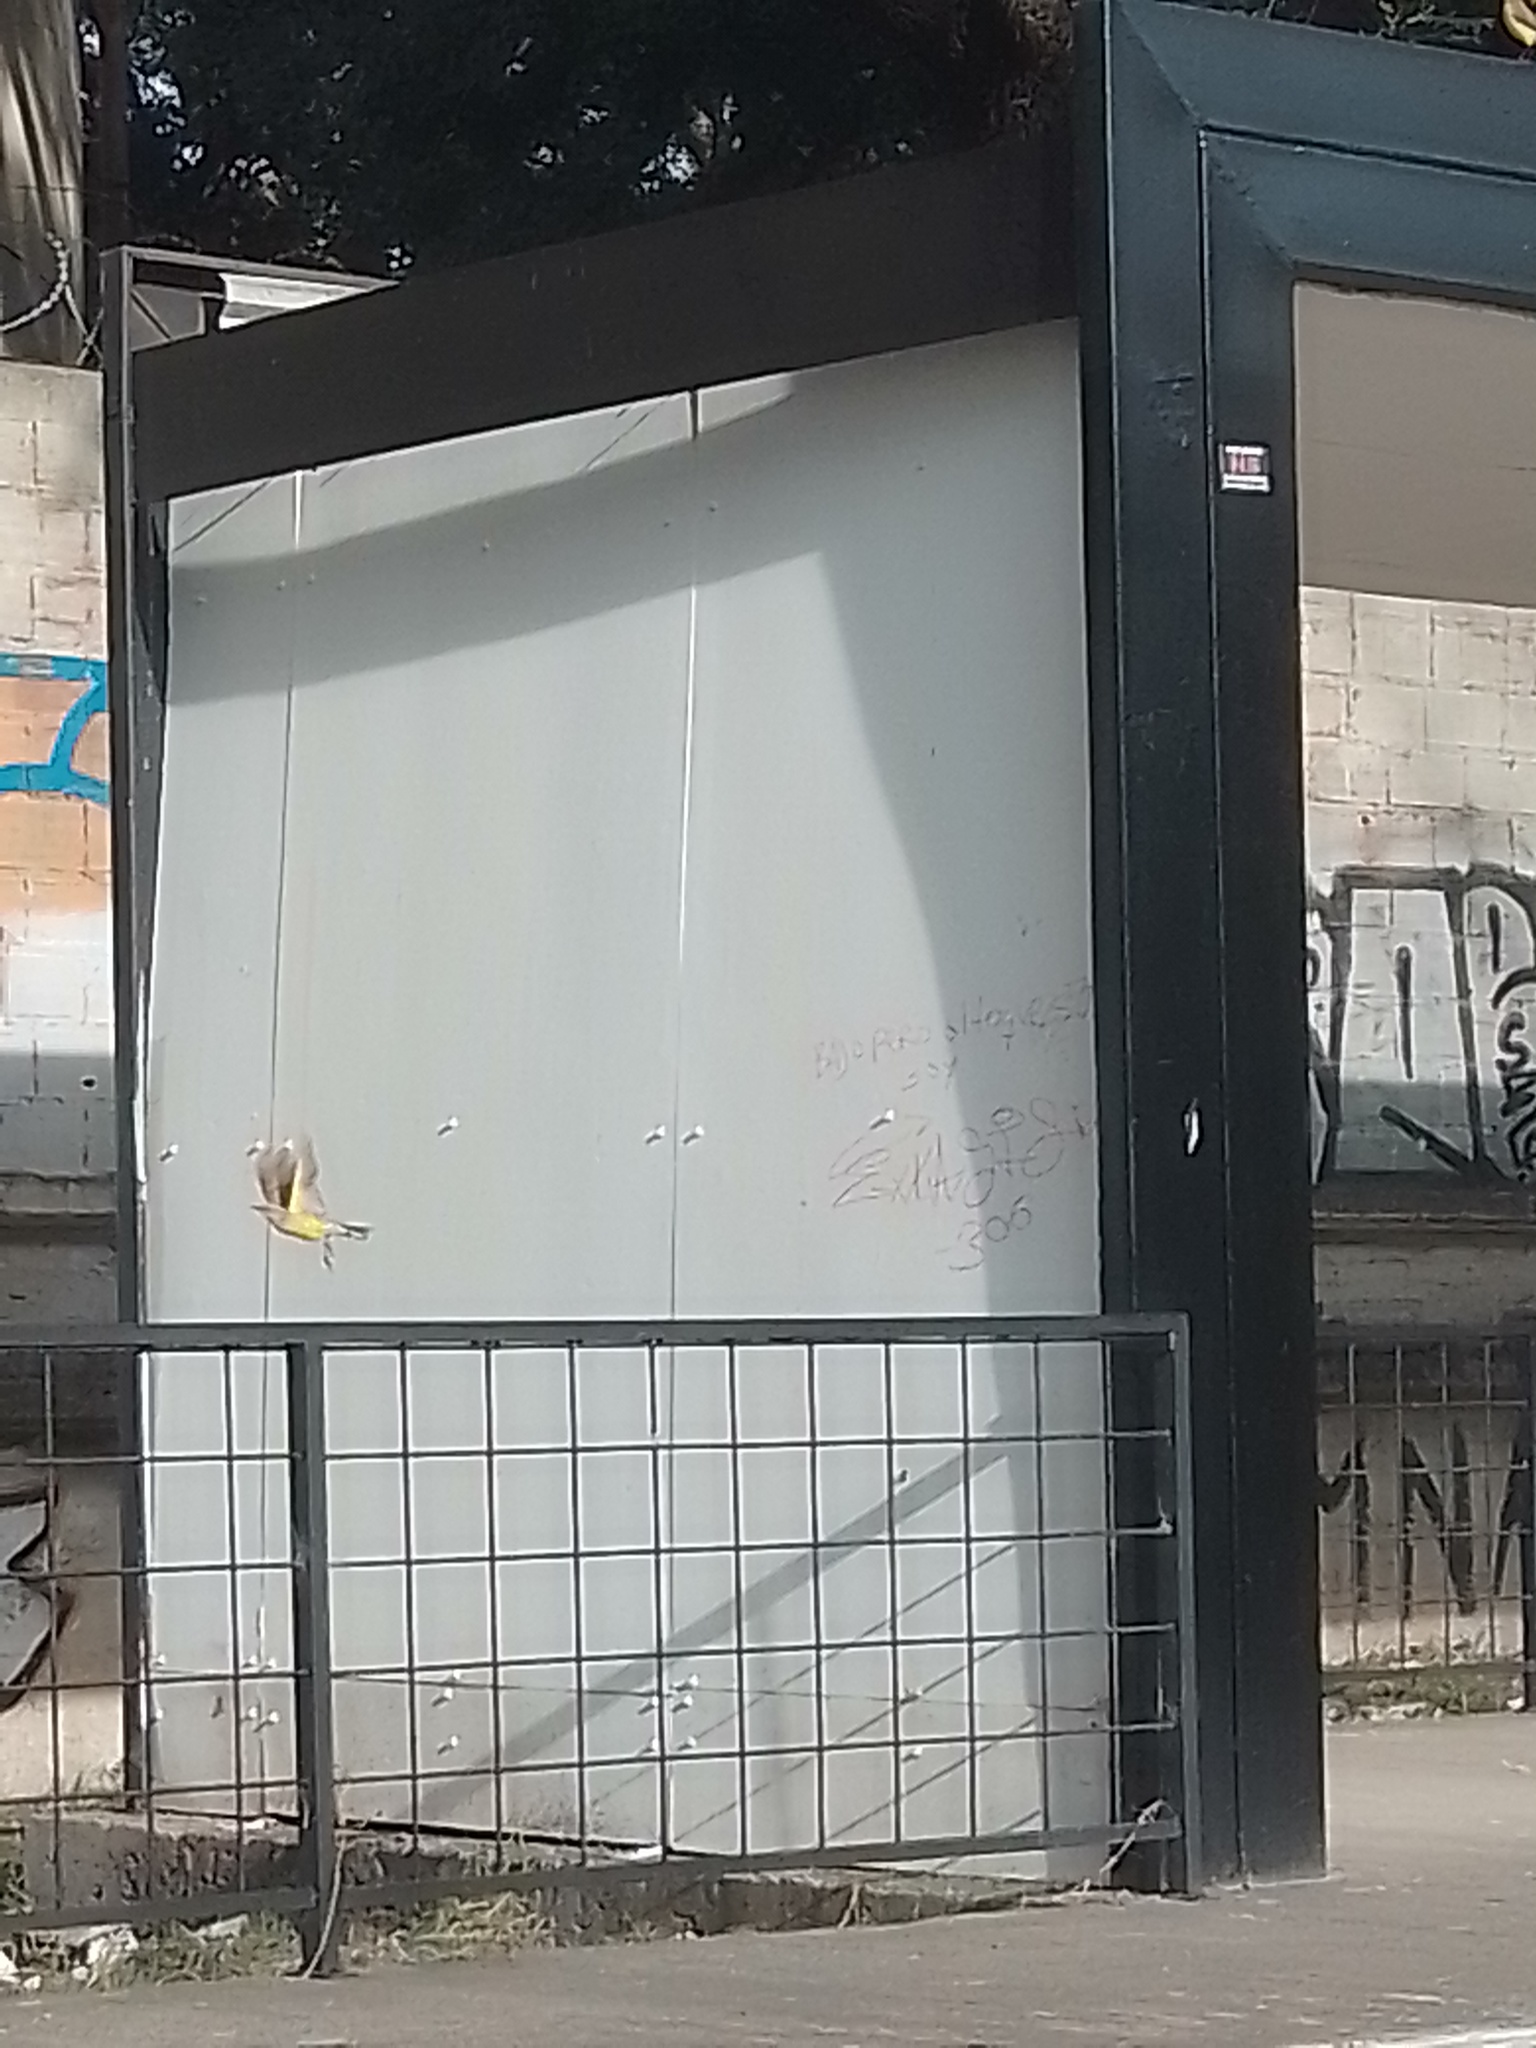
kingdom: Animalia
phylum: Chordata
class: Aves
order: Passeriformes
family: Tyrannidae
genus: Machetornis
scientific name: Machetornis rixosa
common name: Cattle tyrant
